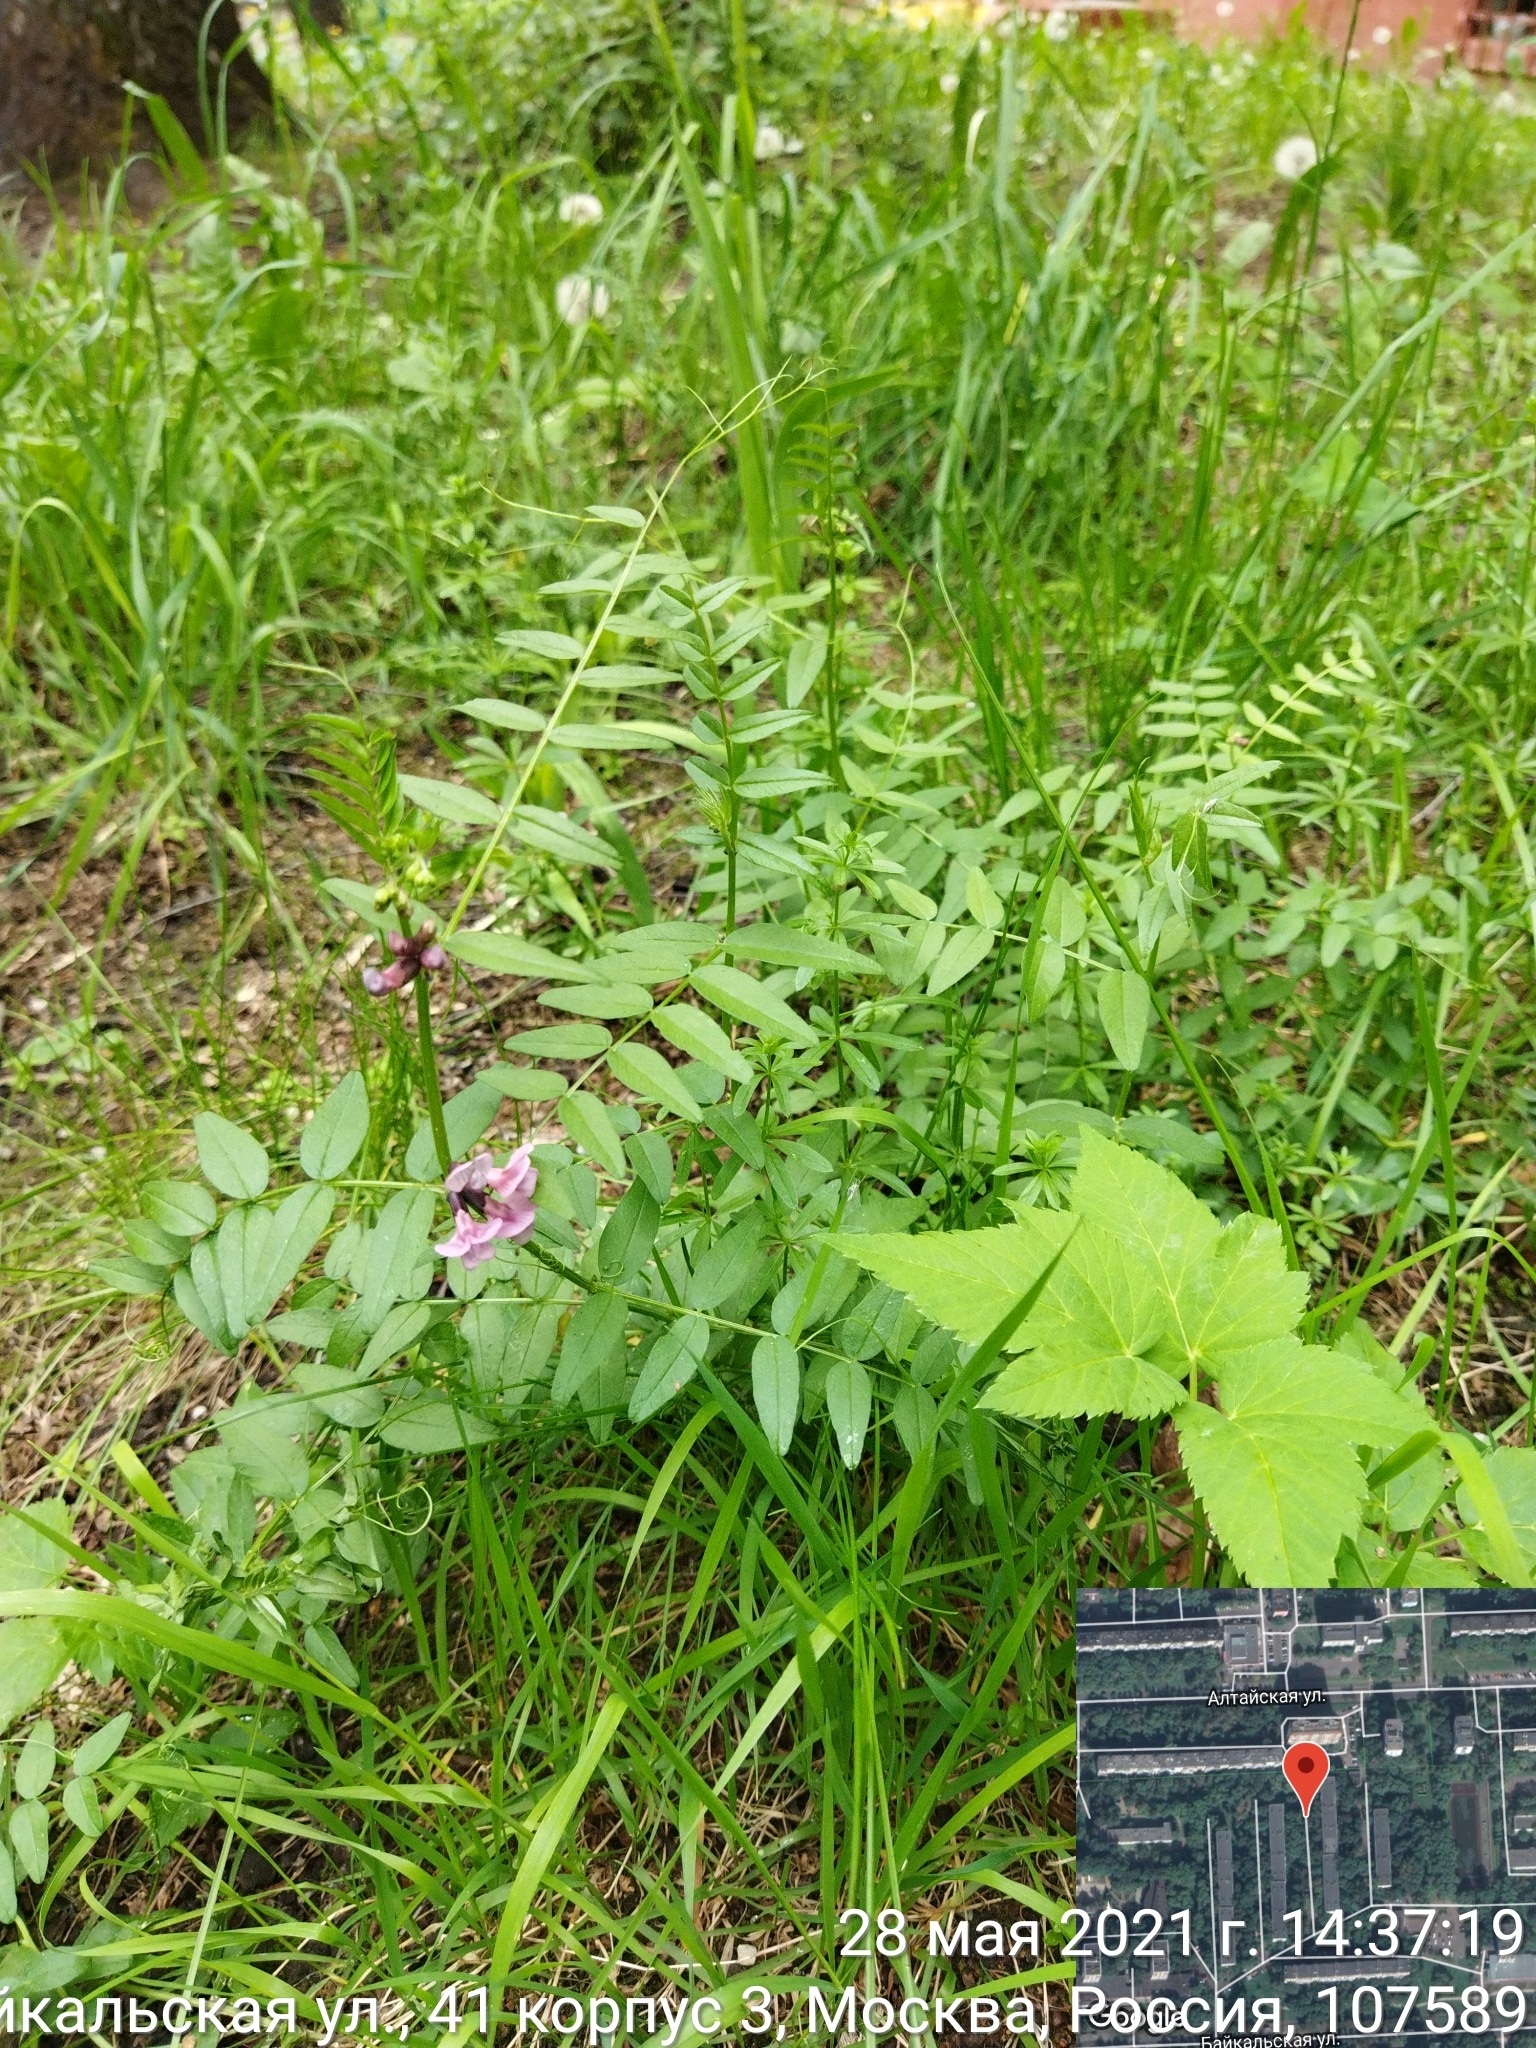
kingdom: Plantae
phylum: Tracheophyta
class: Magnoliopsida
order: Fabales
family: Fabaceae
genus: Vicia
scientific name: Vicia sepium
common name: Bush vetch
